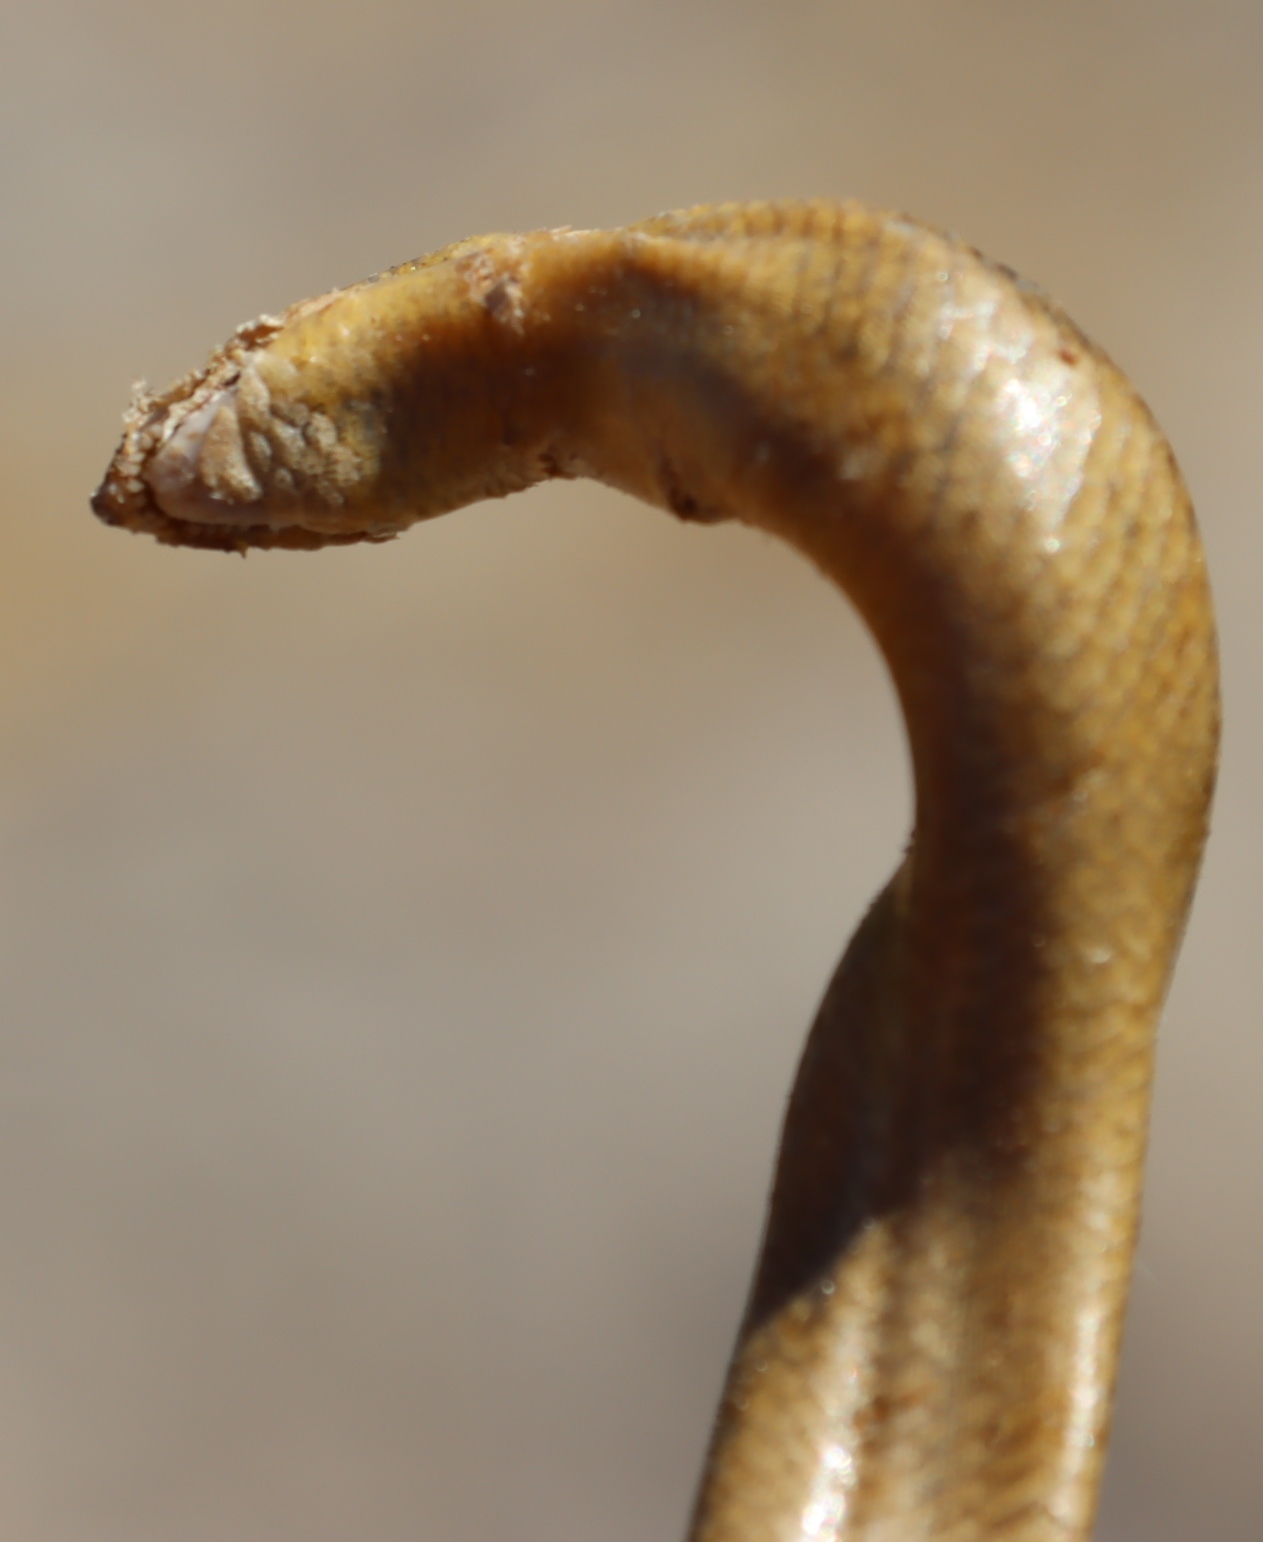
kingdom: Animalia
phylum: Chordata
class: Squamata
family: Scincidae
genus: Acontias
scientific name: Acontias meleagris
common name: Cape legless skink
